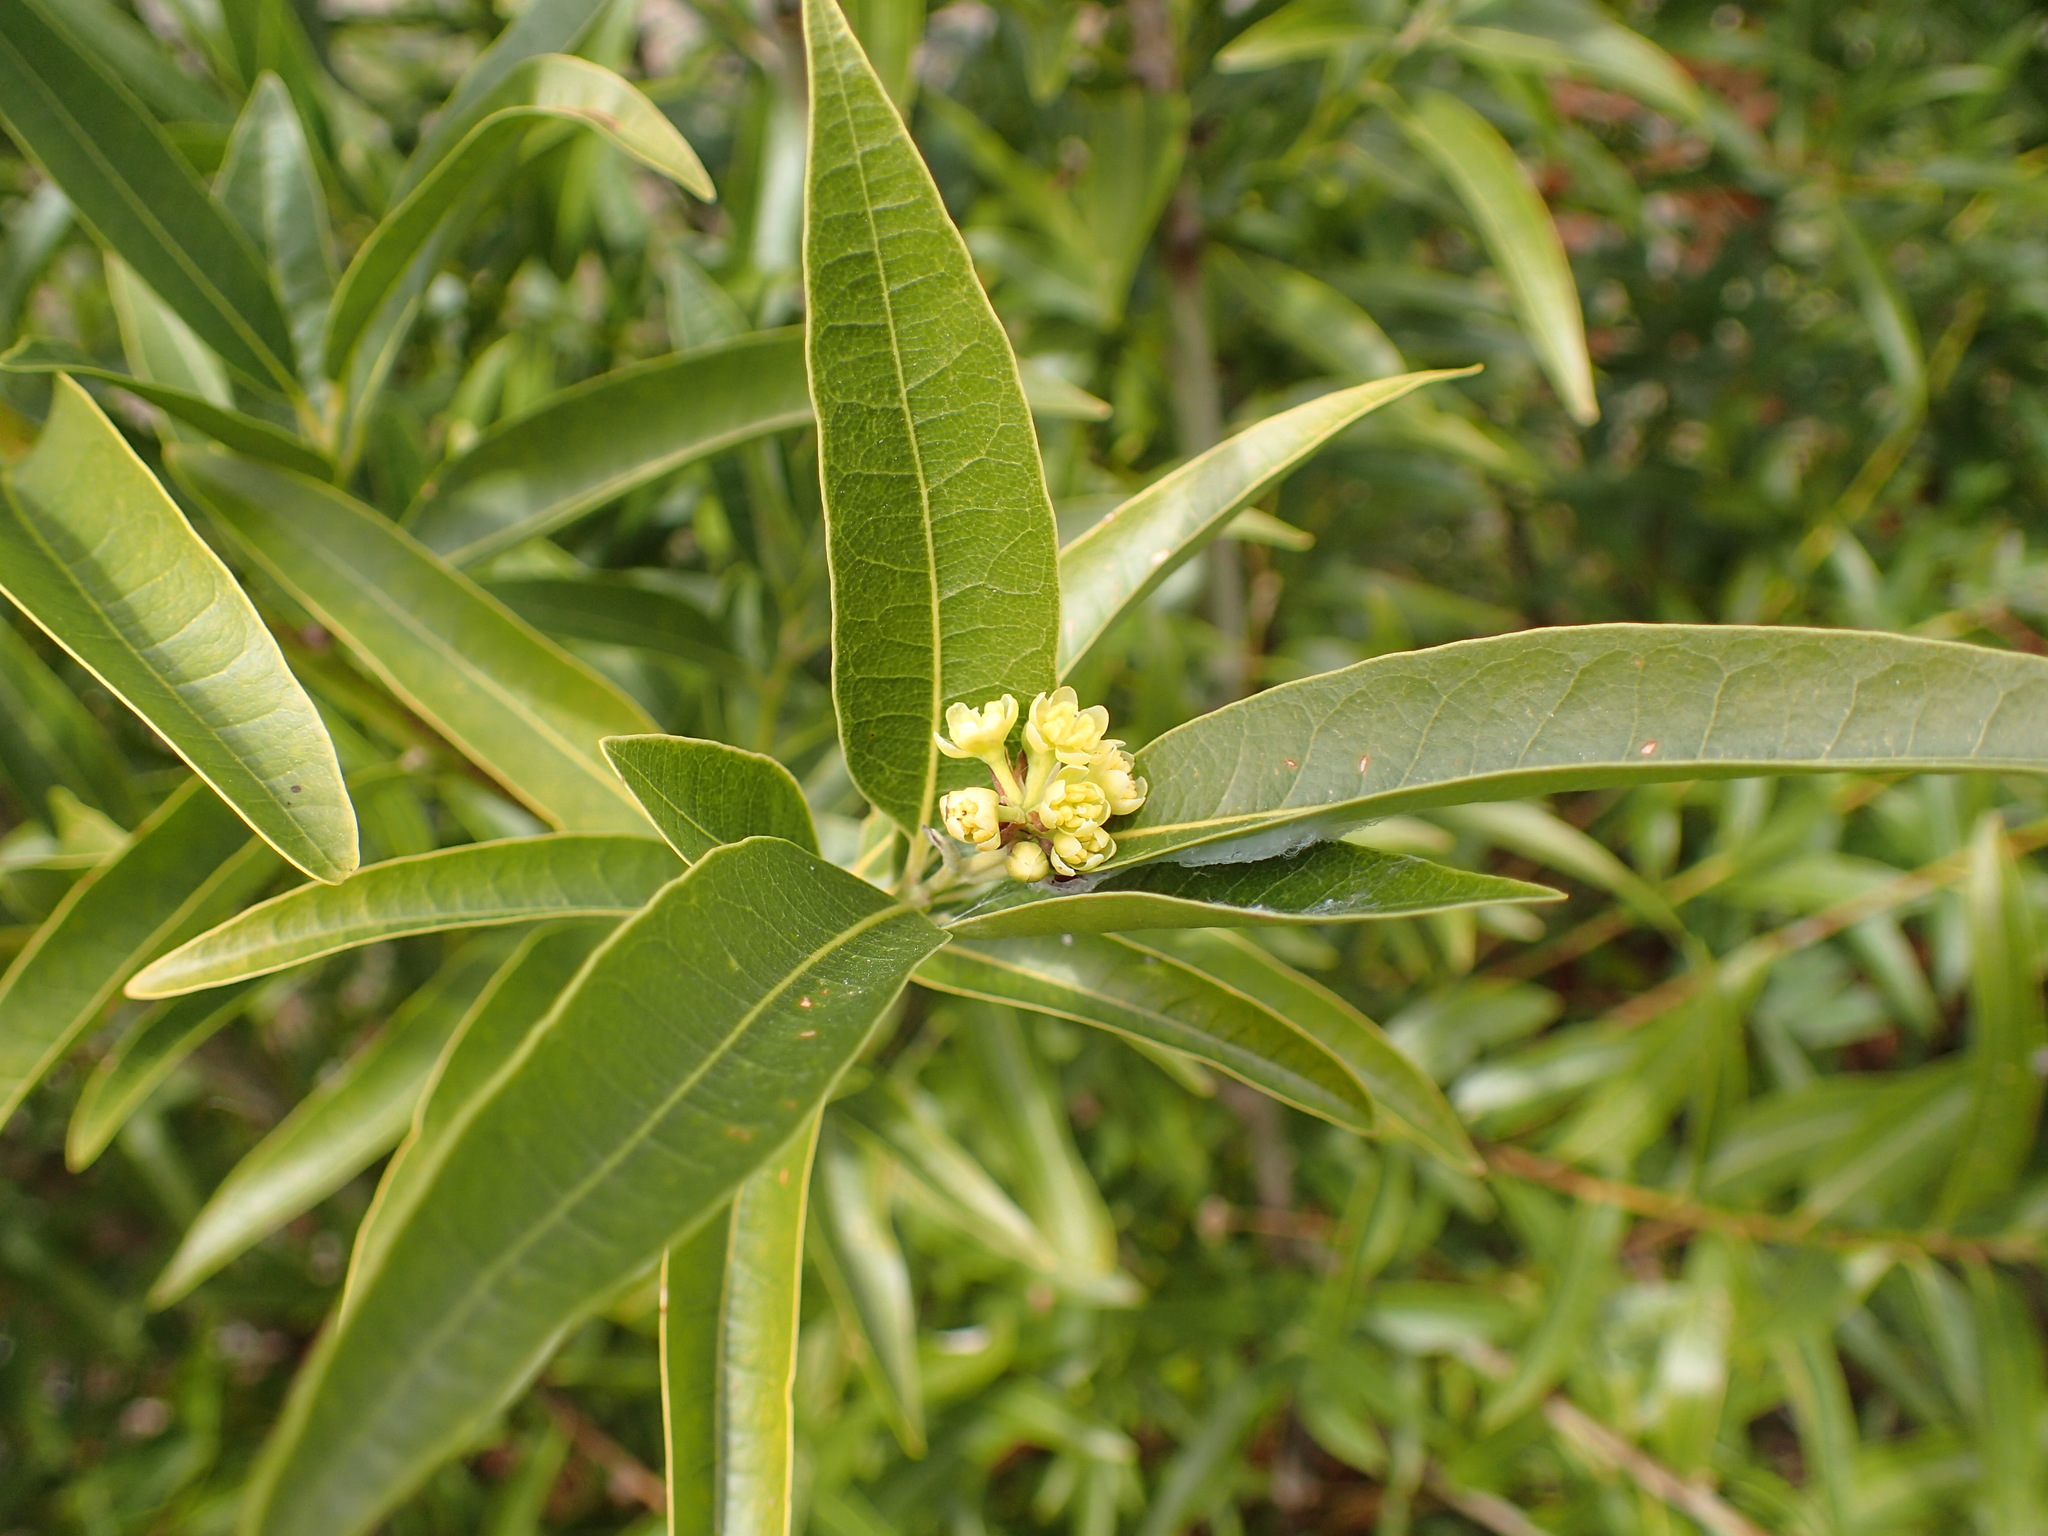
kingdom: Plantae
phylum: Tracheophyta
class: Magnoliopsida
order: Laurales
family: Lauraceae
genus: Umbellularia
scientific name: Umbellularia californica
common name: California bay
